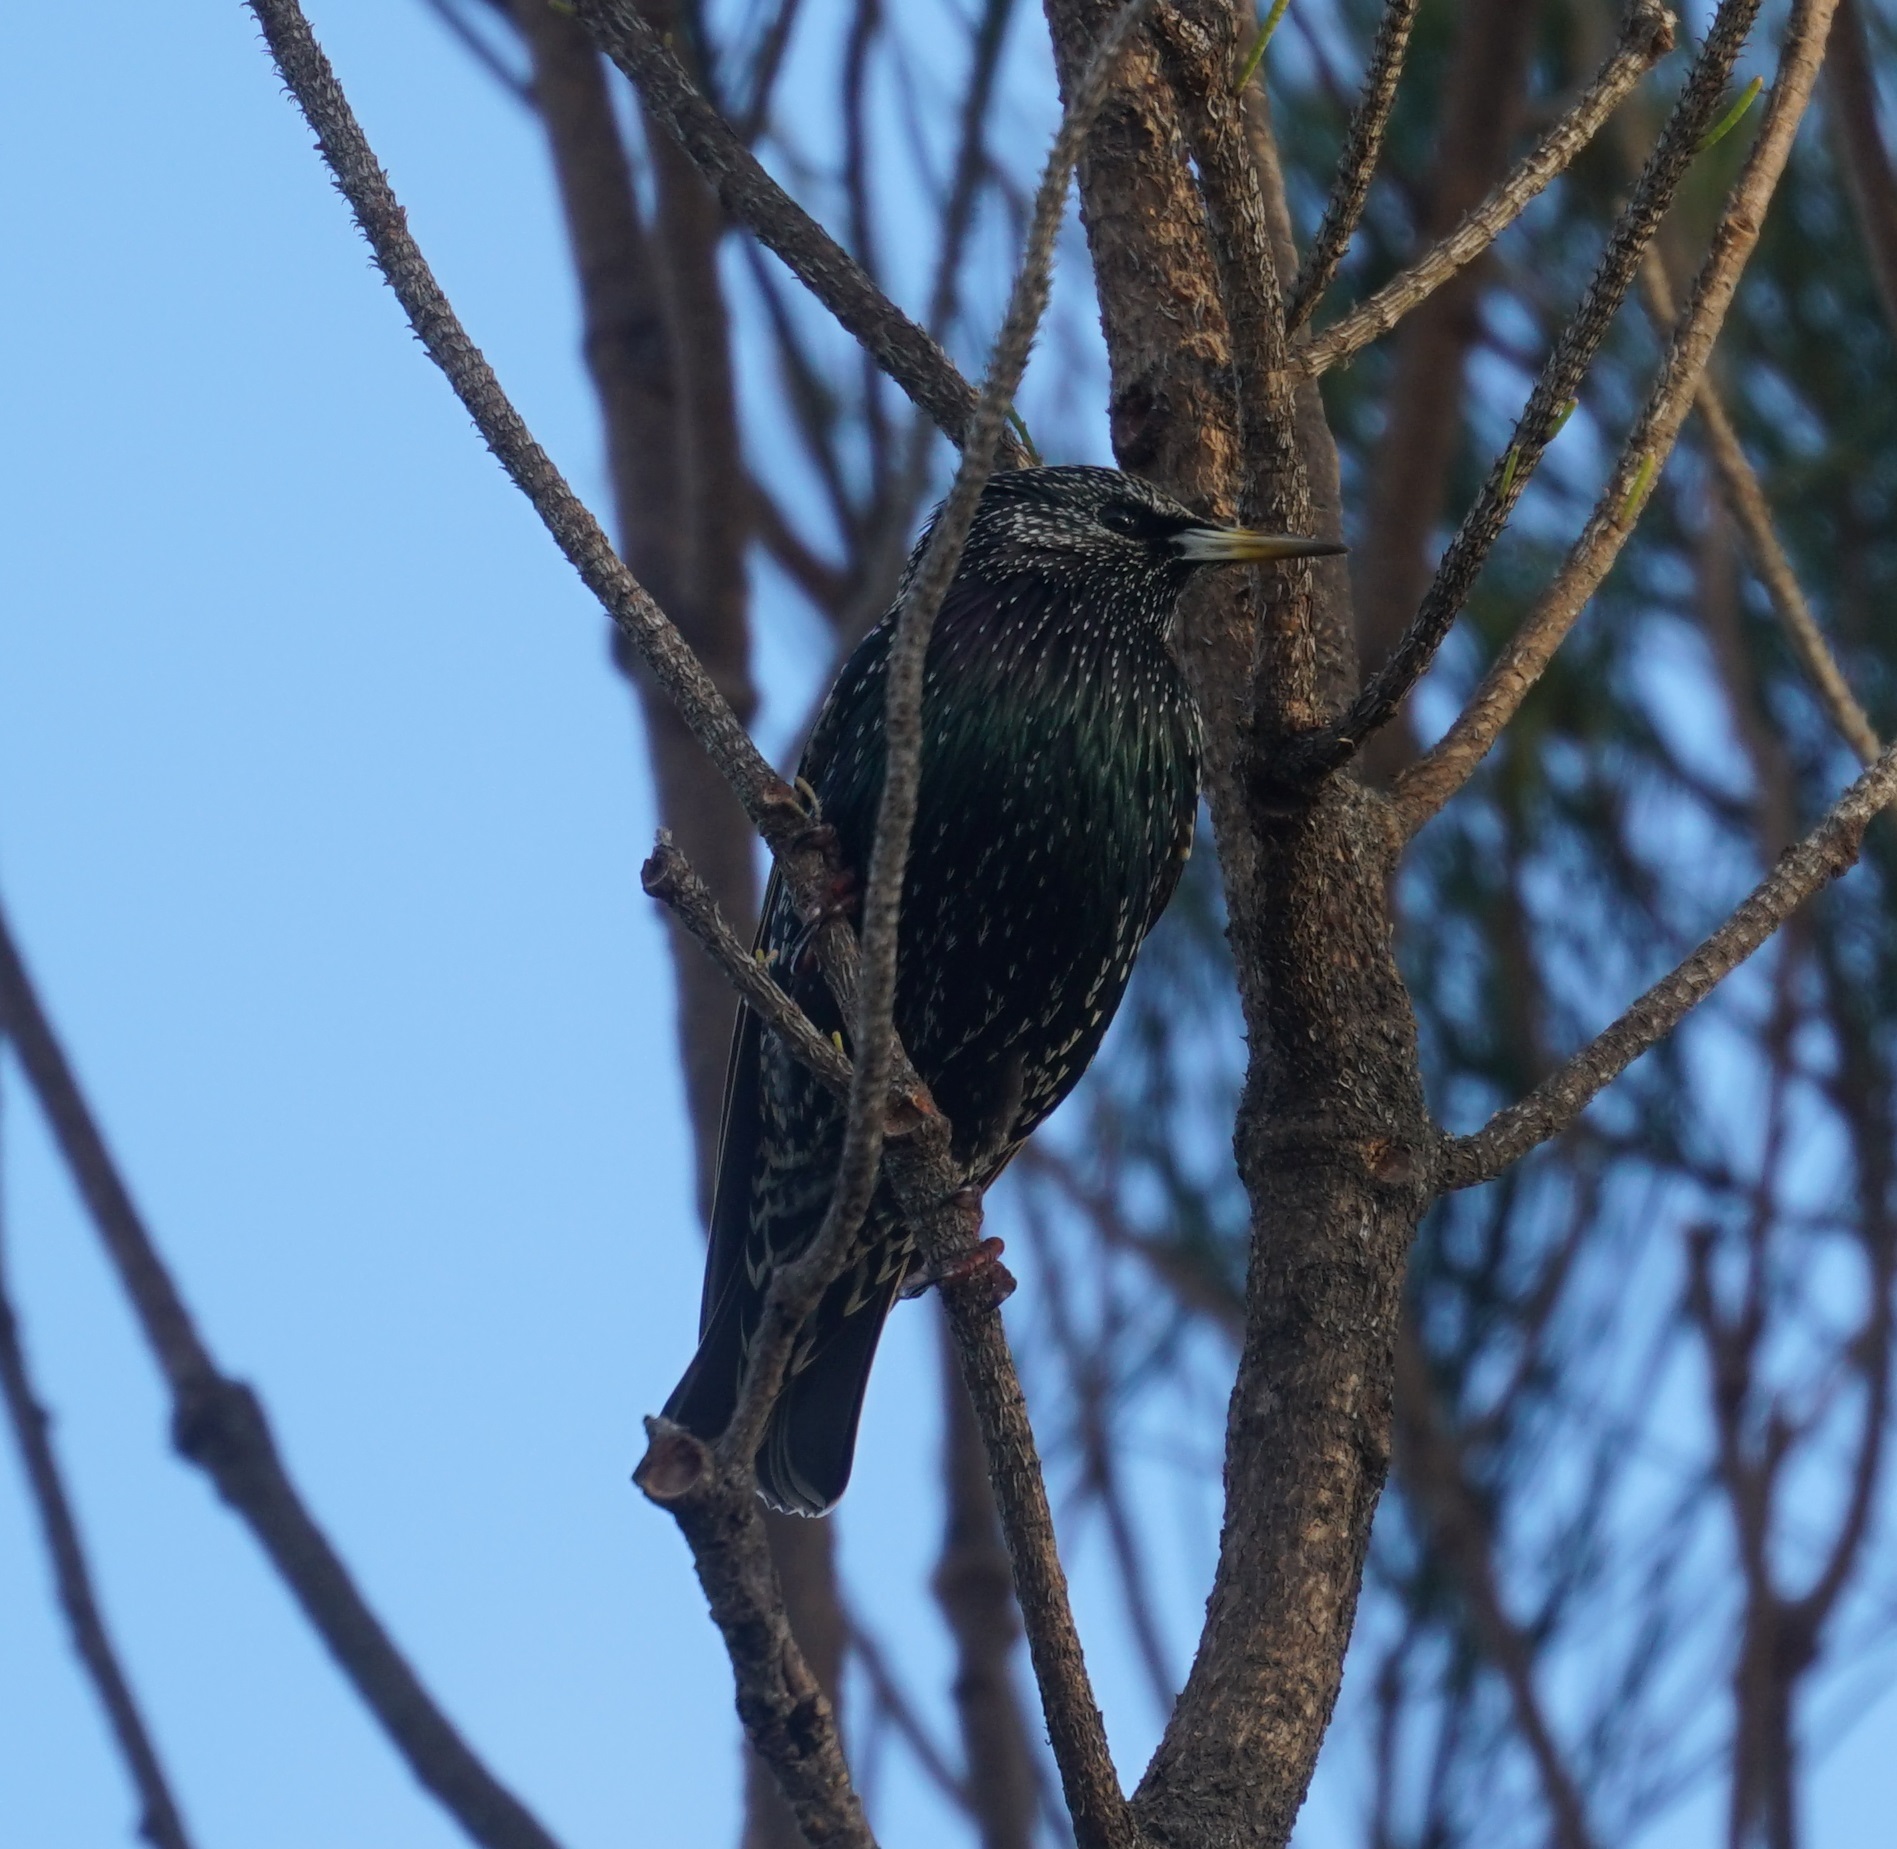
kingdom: Animalia
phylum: Chordata
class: Aves
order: Passeriformes
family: Sturnidae
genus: Sturnus
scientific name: Sturnus vulgaris
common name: Common starling
